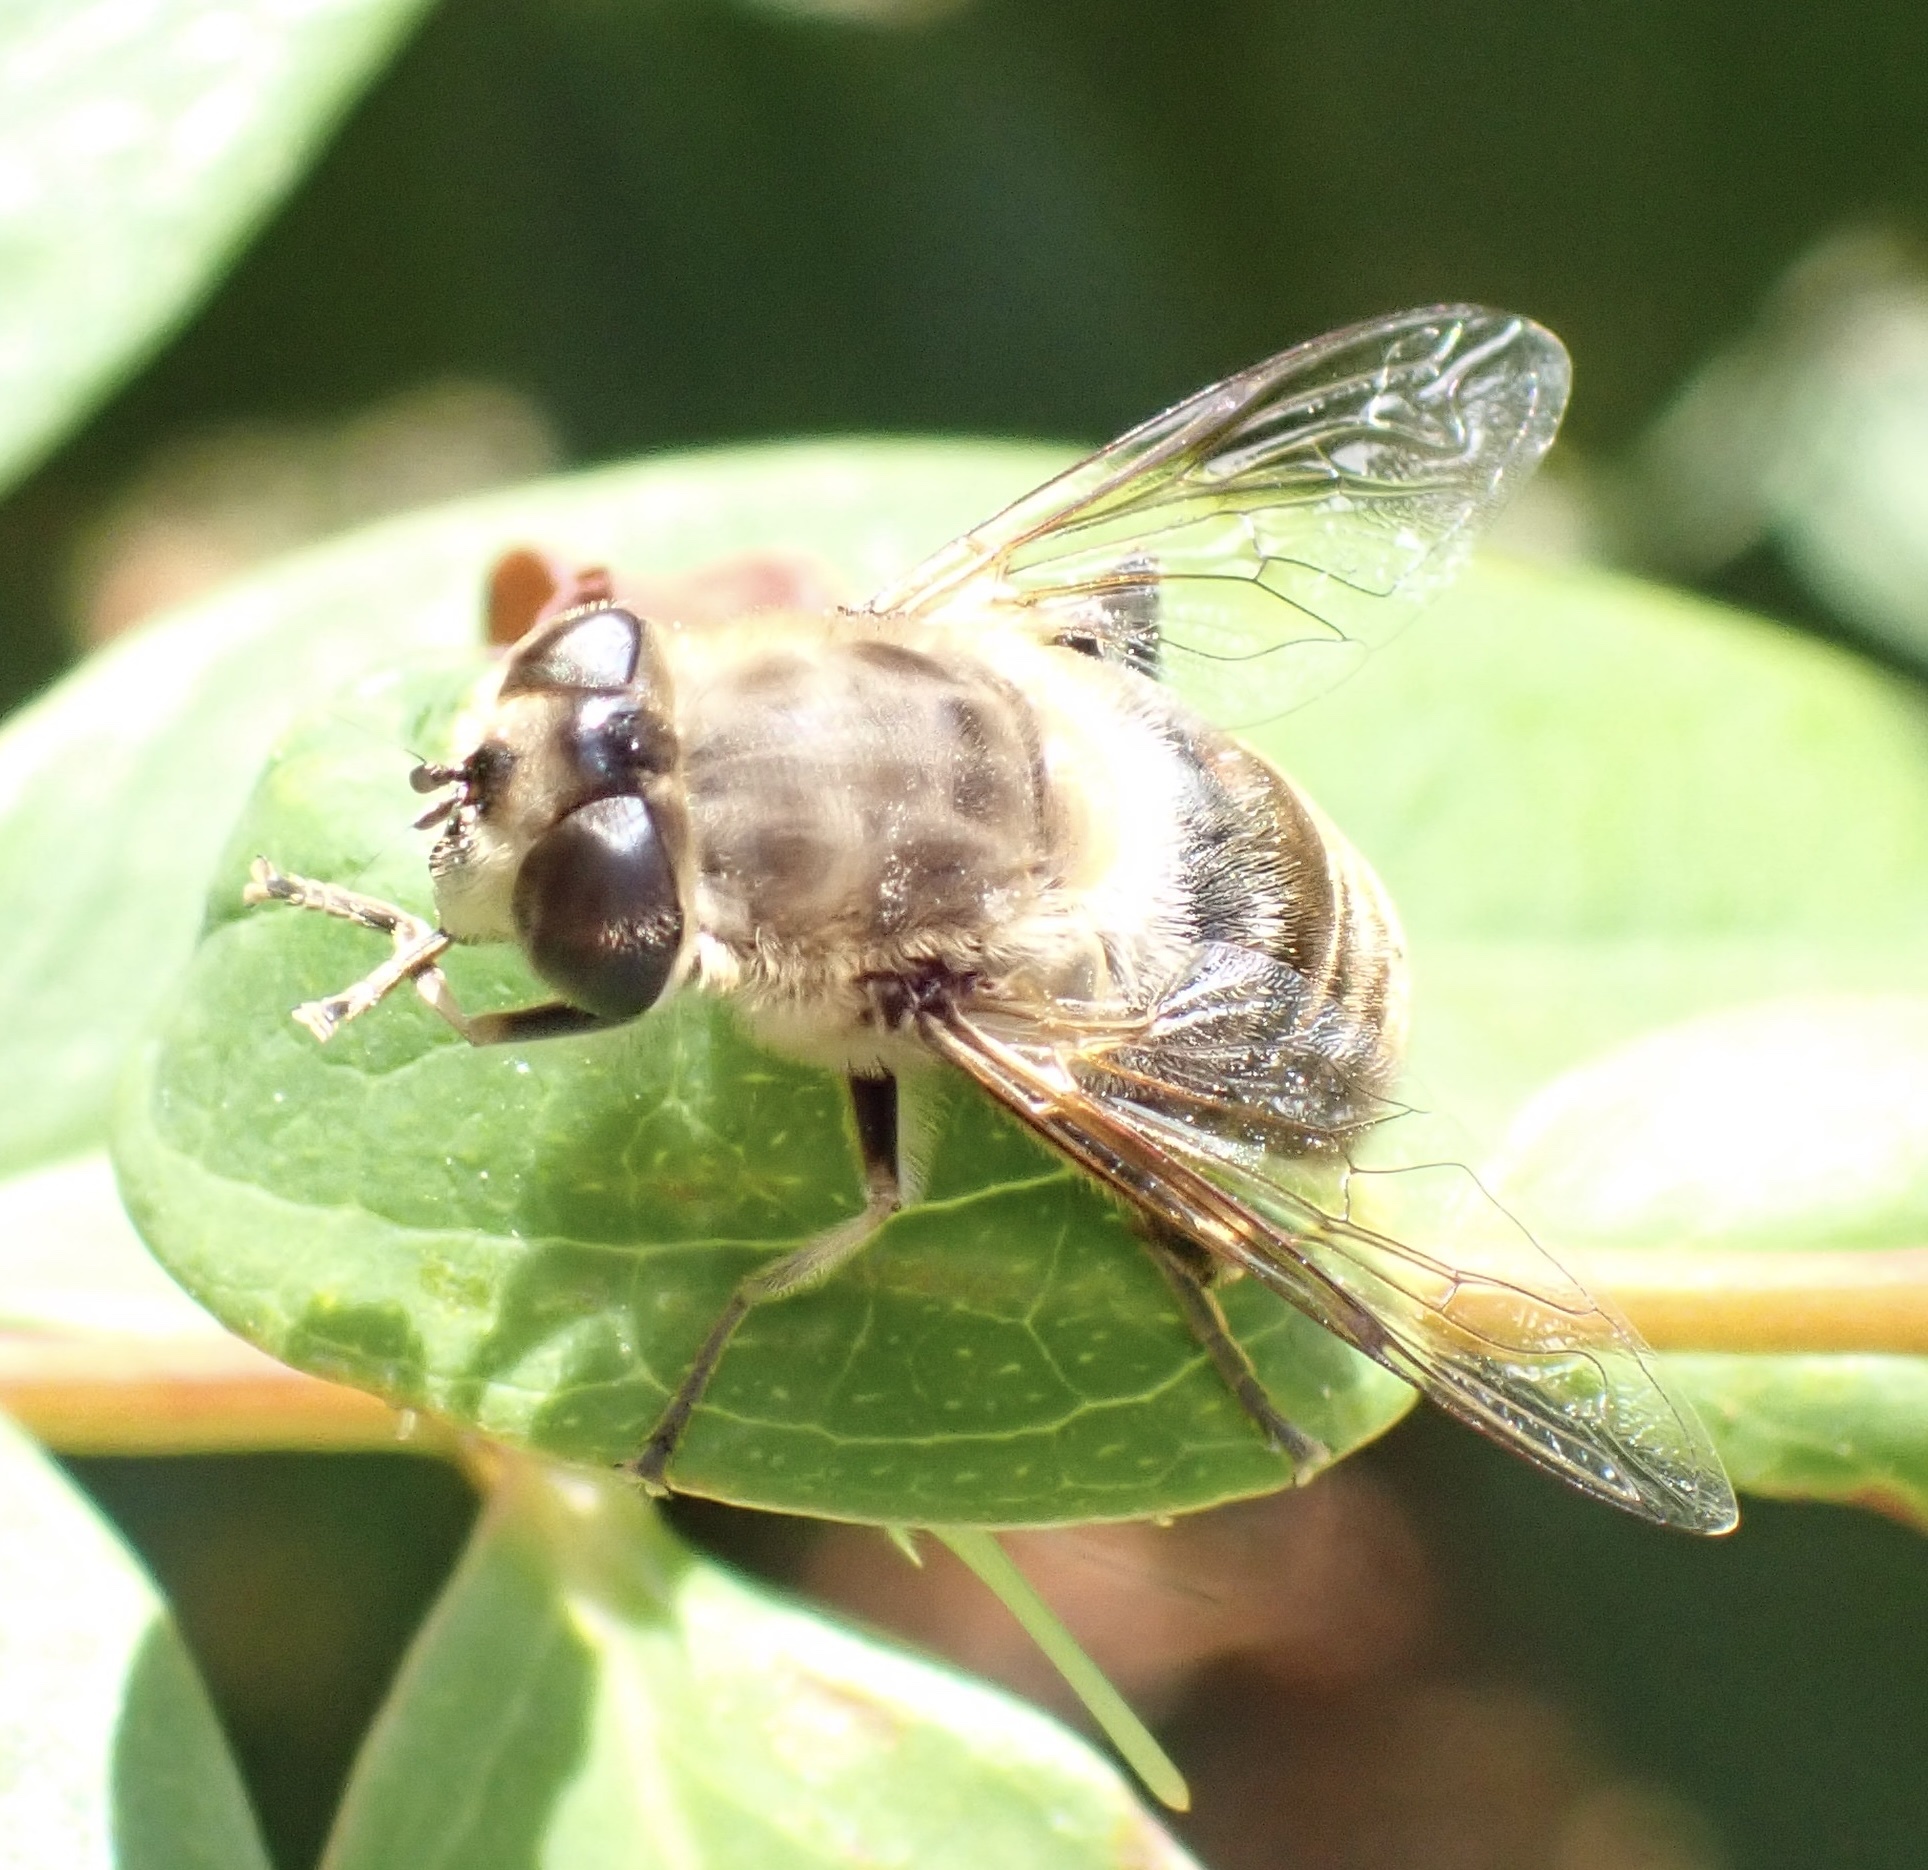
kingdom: Animalia
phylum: Arthropoda
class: Insecta
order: Diptera
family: Syrphidae
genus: Eristalis
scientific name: Eristalis tenax
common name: Drone fly
